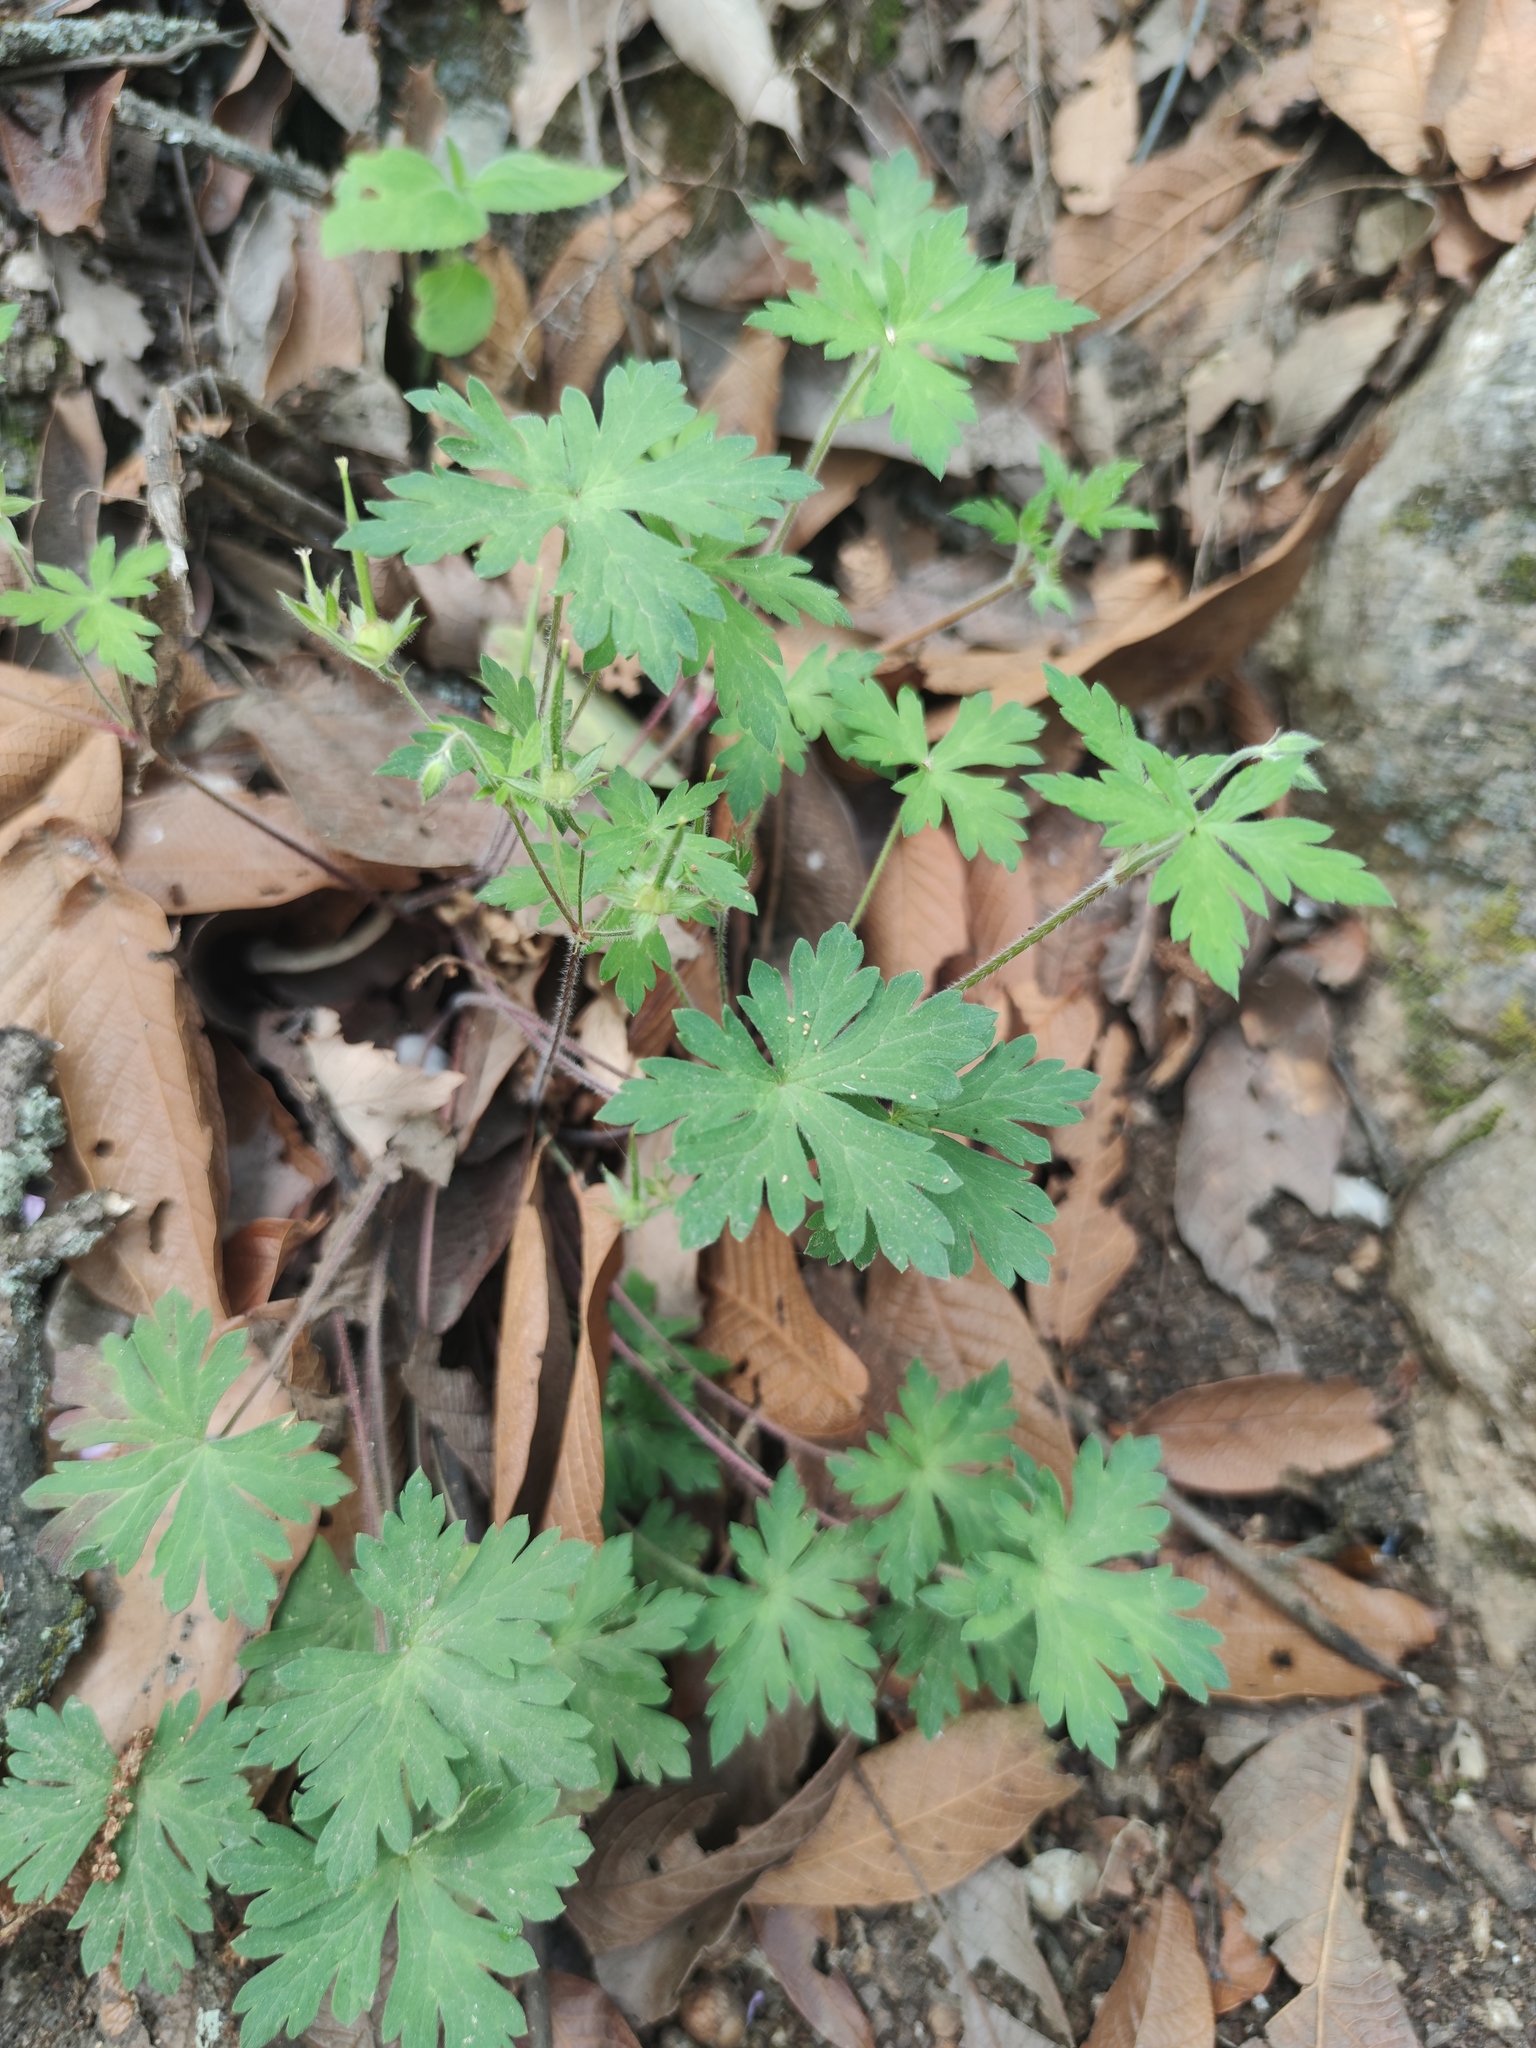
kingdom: Plantae
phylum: Tracheophyta
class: Magnoliopsida
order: Geraniales
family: Geraniaceae
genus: Geranium
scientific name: Geranium seemannii
